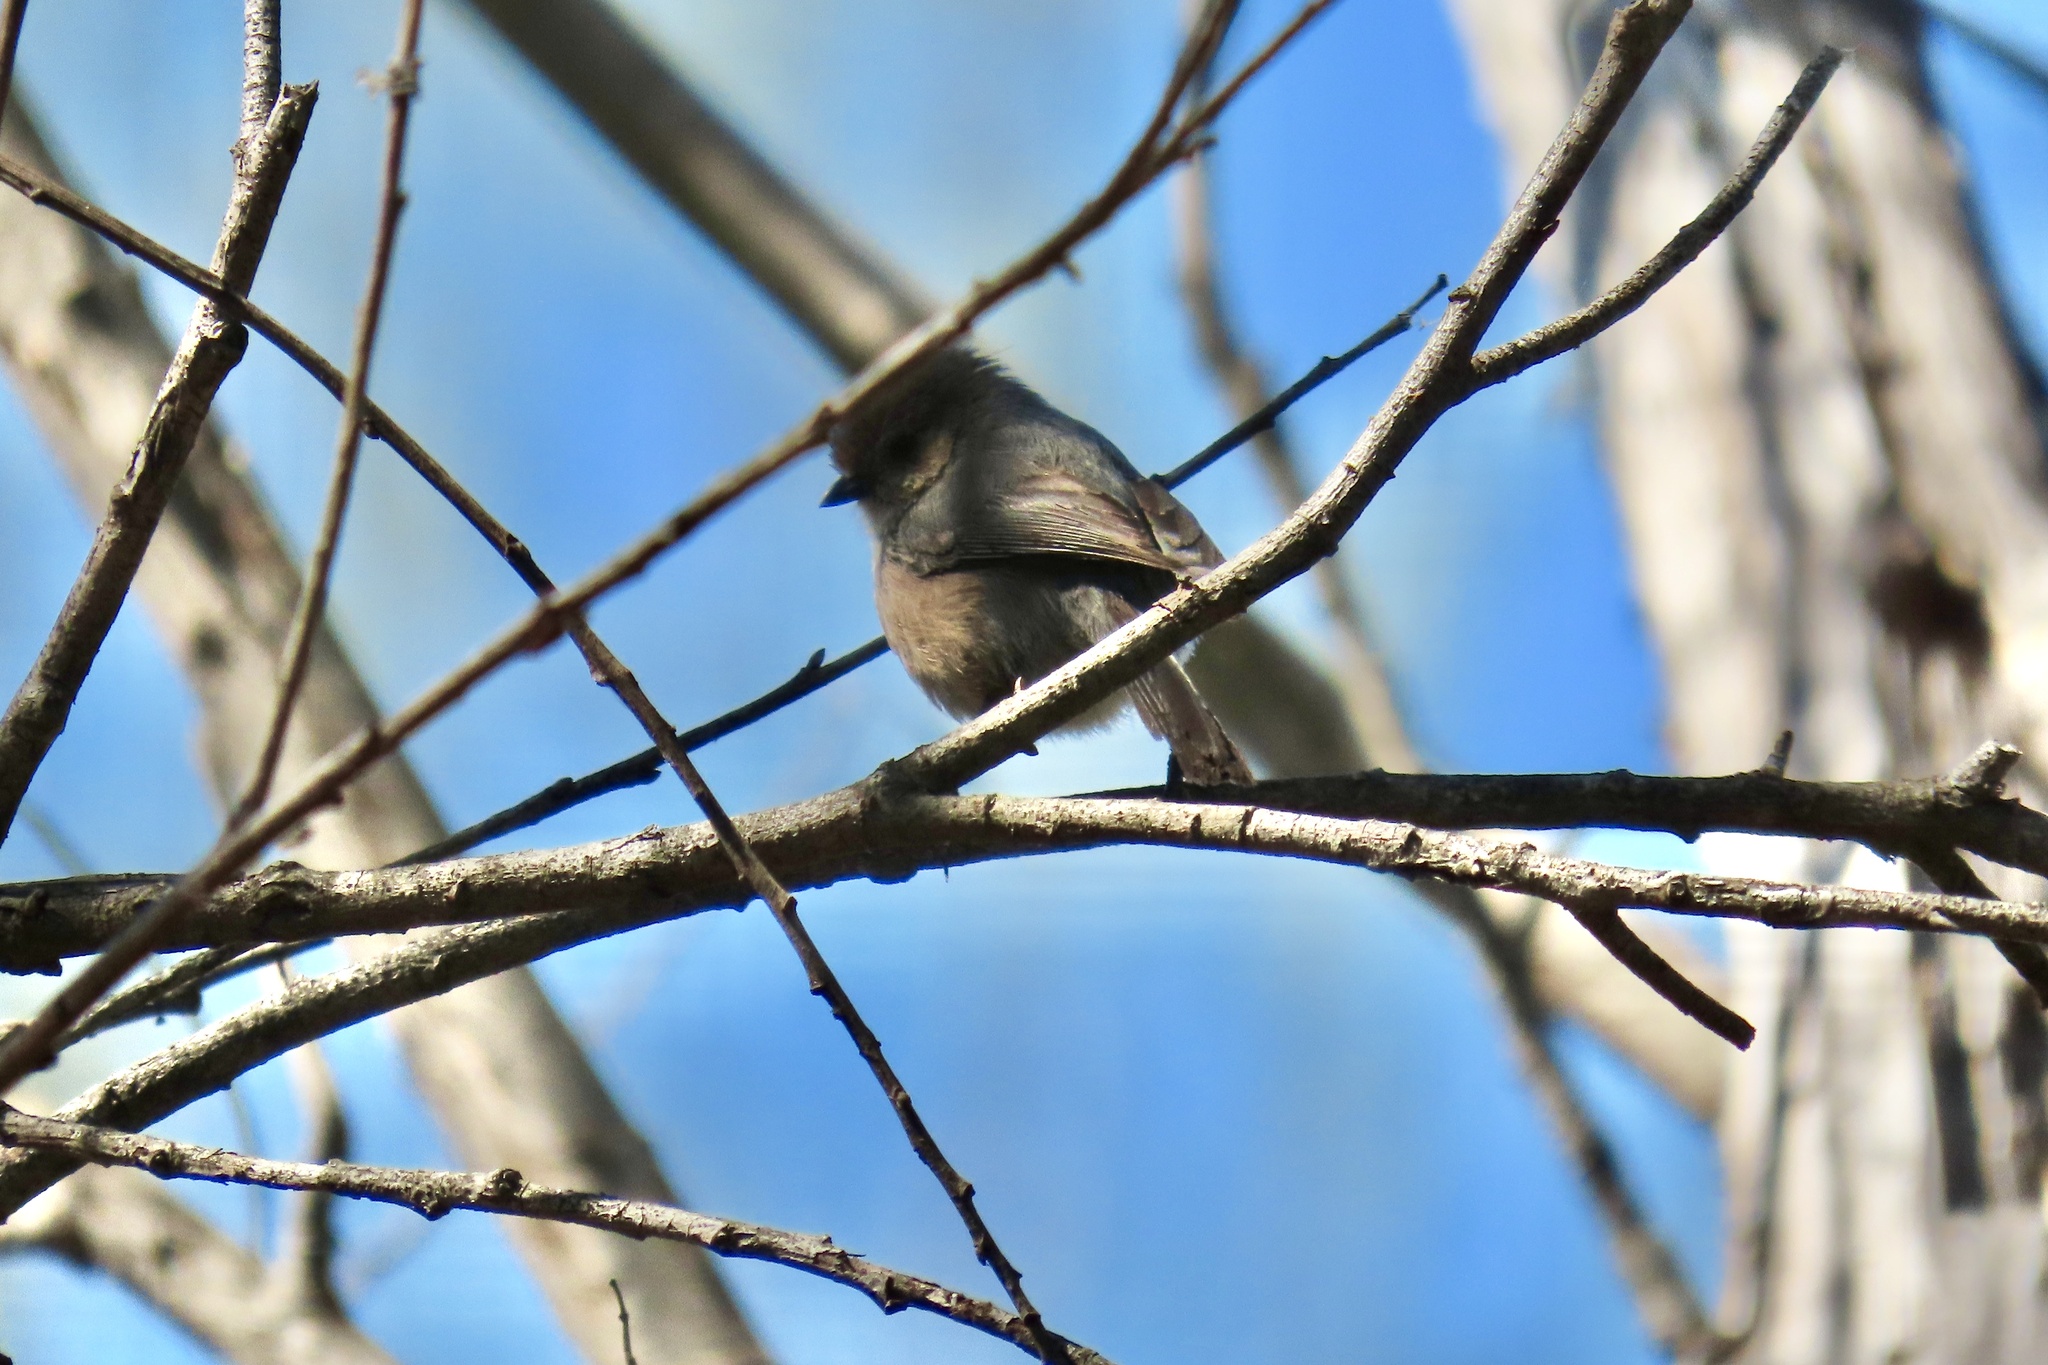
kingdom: Animalia
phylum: Chordata
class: Aves
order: Passeriformes
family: Aegithalidae
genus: Psaltriparus
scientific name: Psaltriparus minimus
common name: American bushtit
